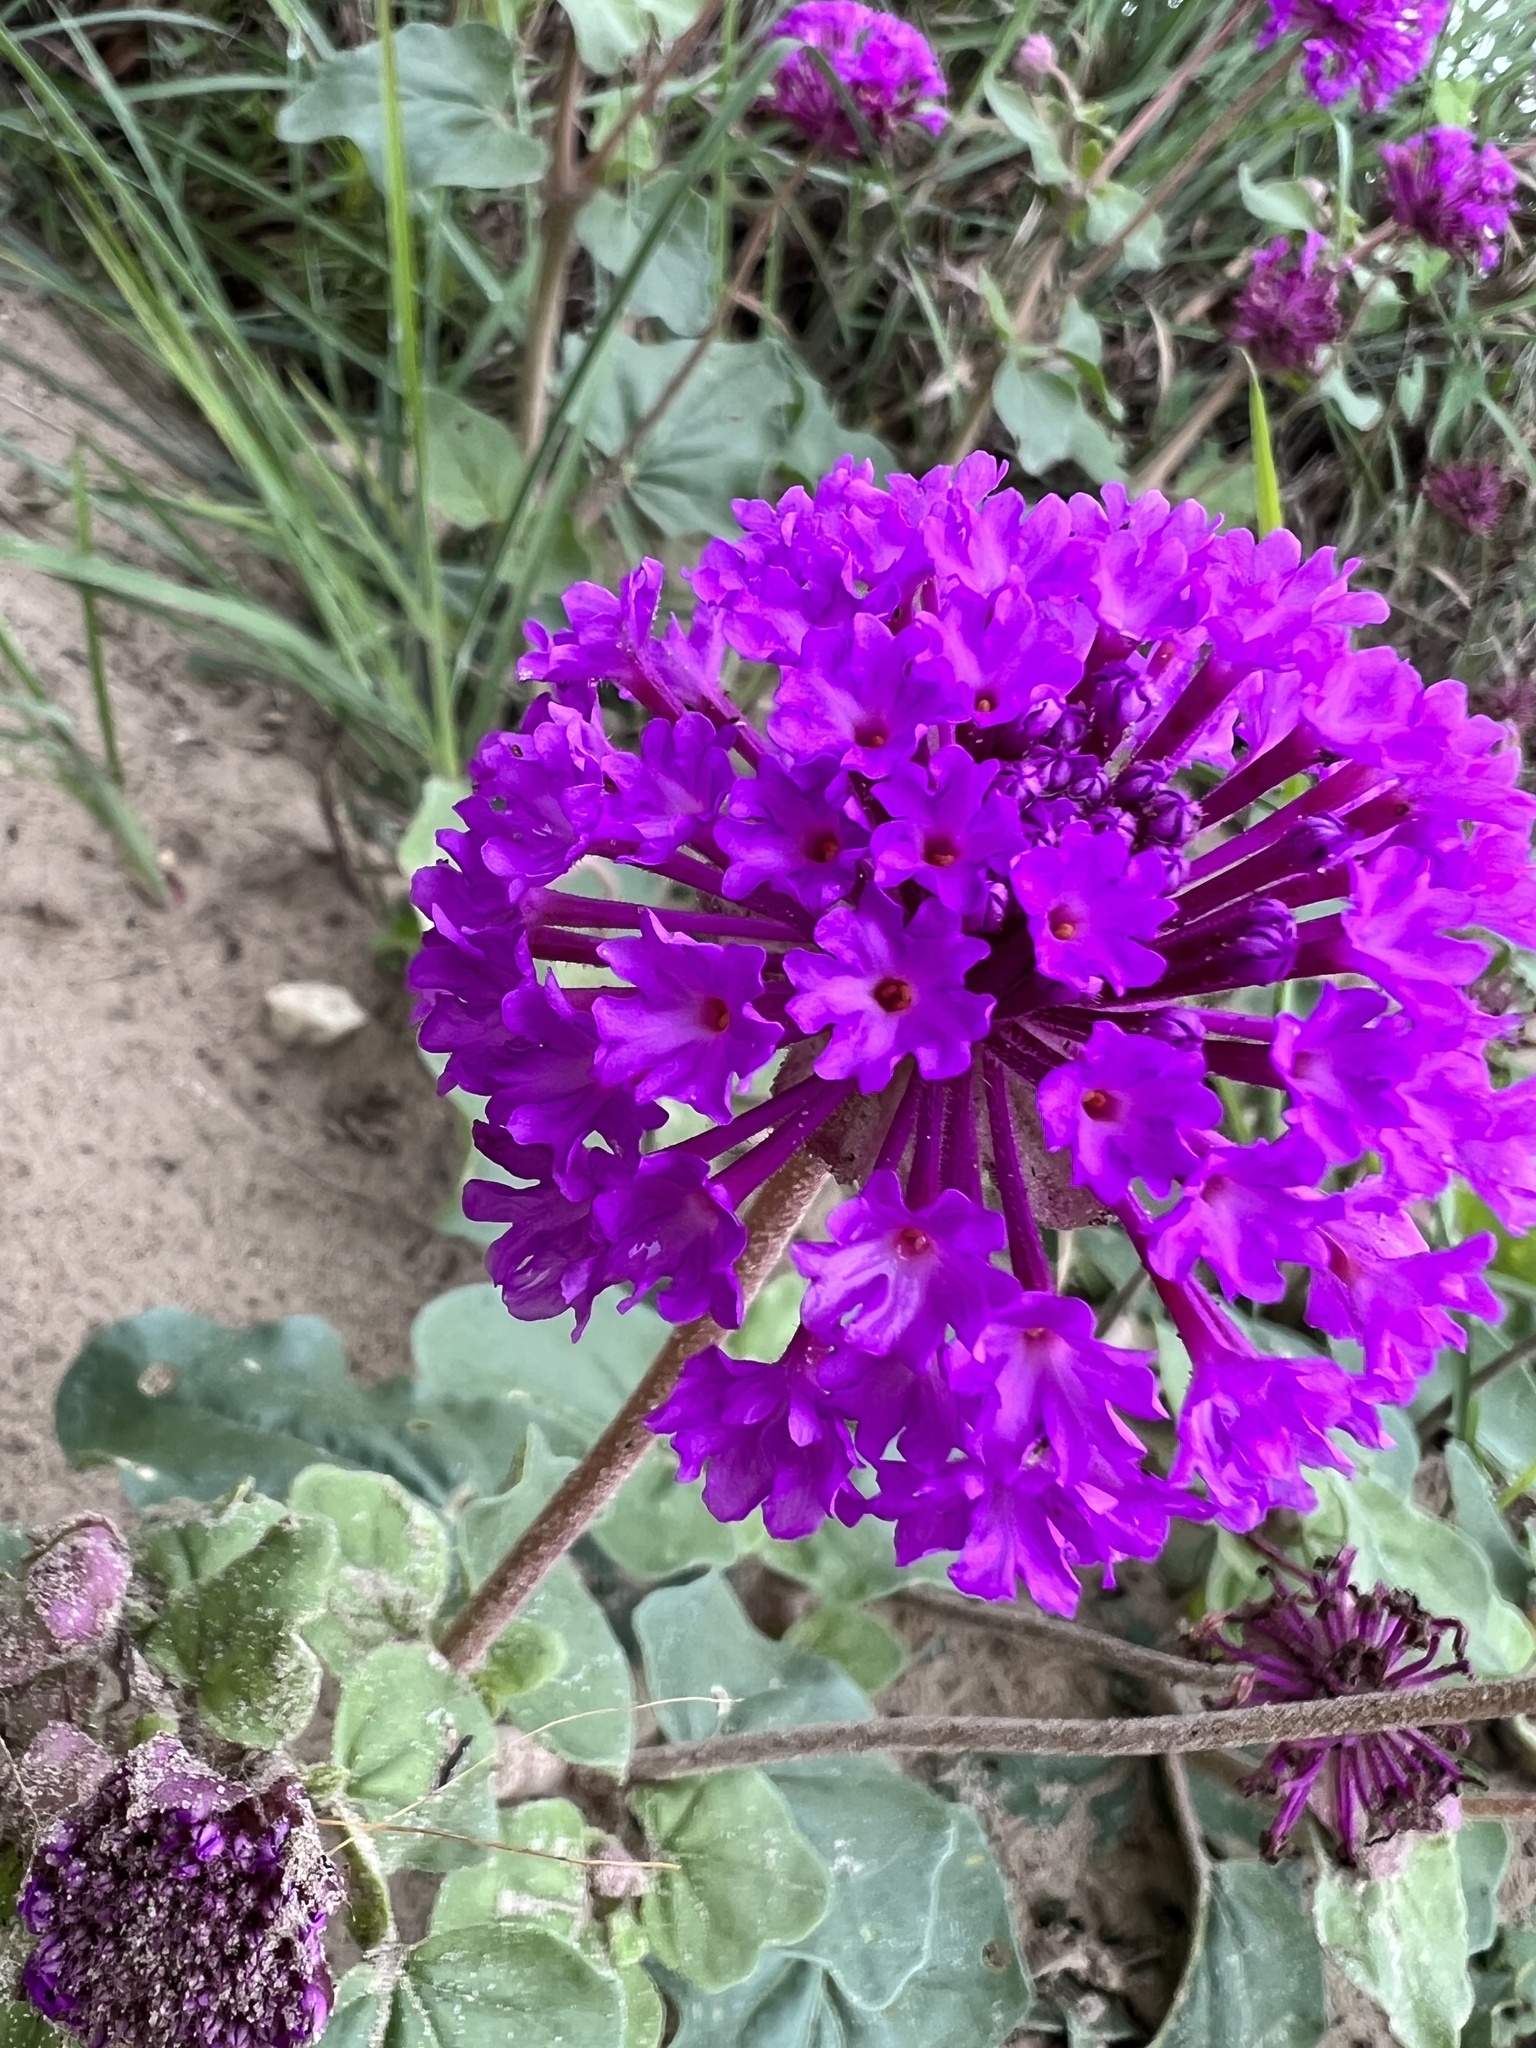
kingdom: Plantae
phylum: Tracheophyta
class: Magnoliopsida
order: Caryophyllales
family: Nyctaginaceae
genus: Abronia
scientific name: Abronia ameliae
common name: Amelia's sand-verbena
